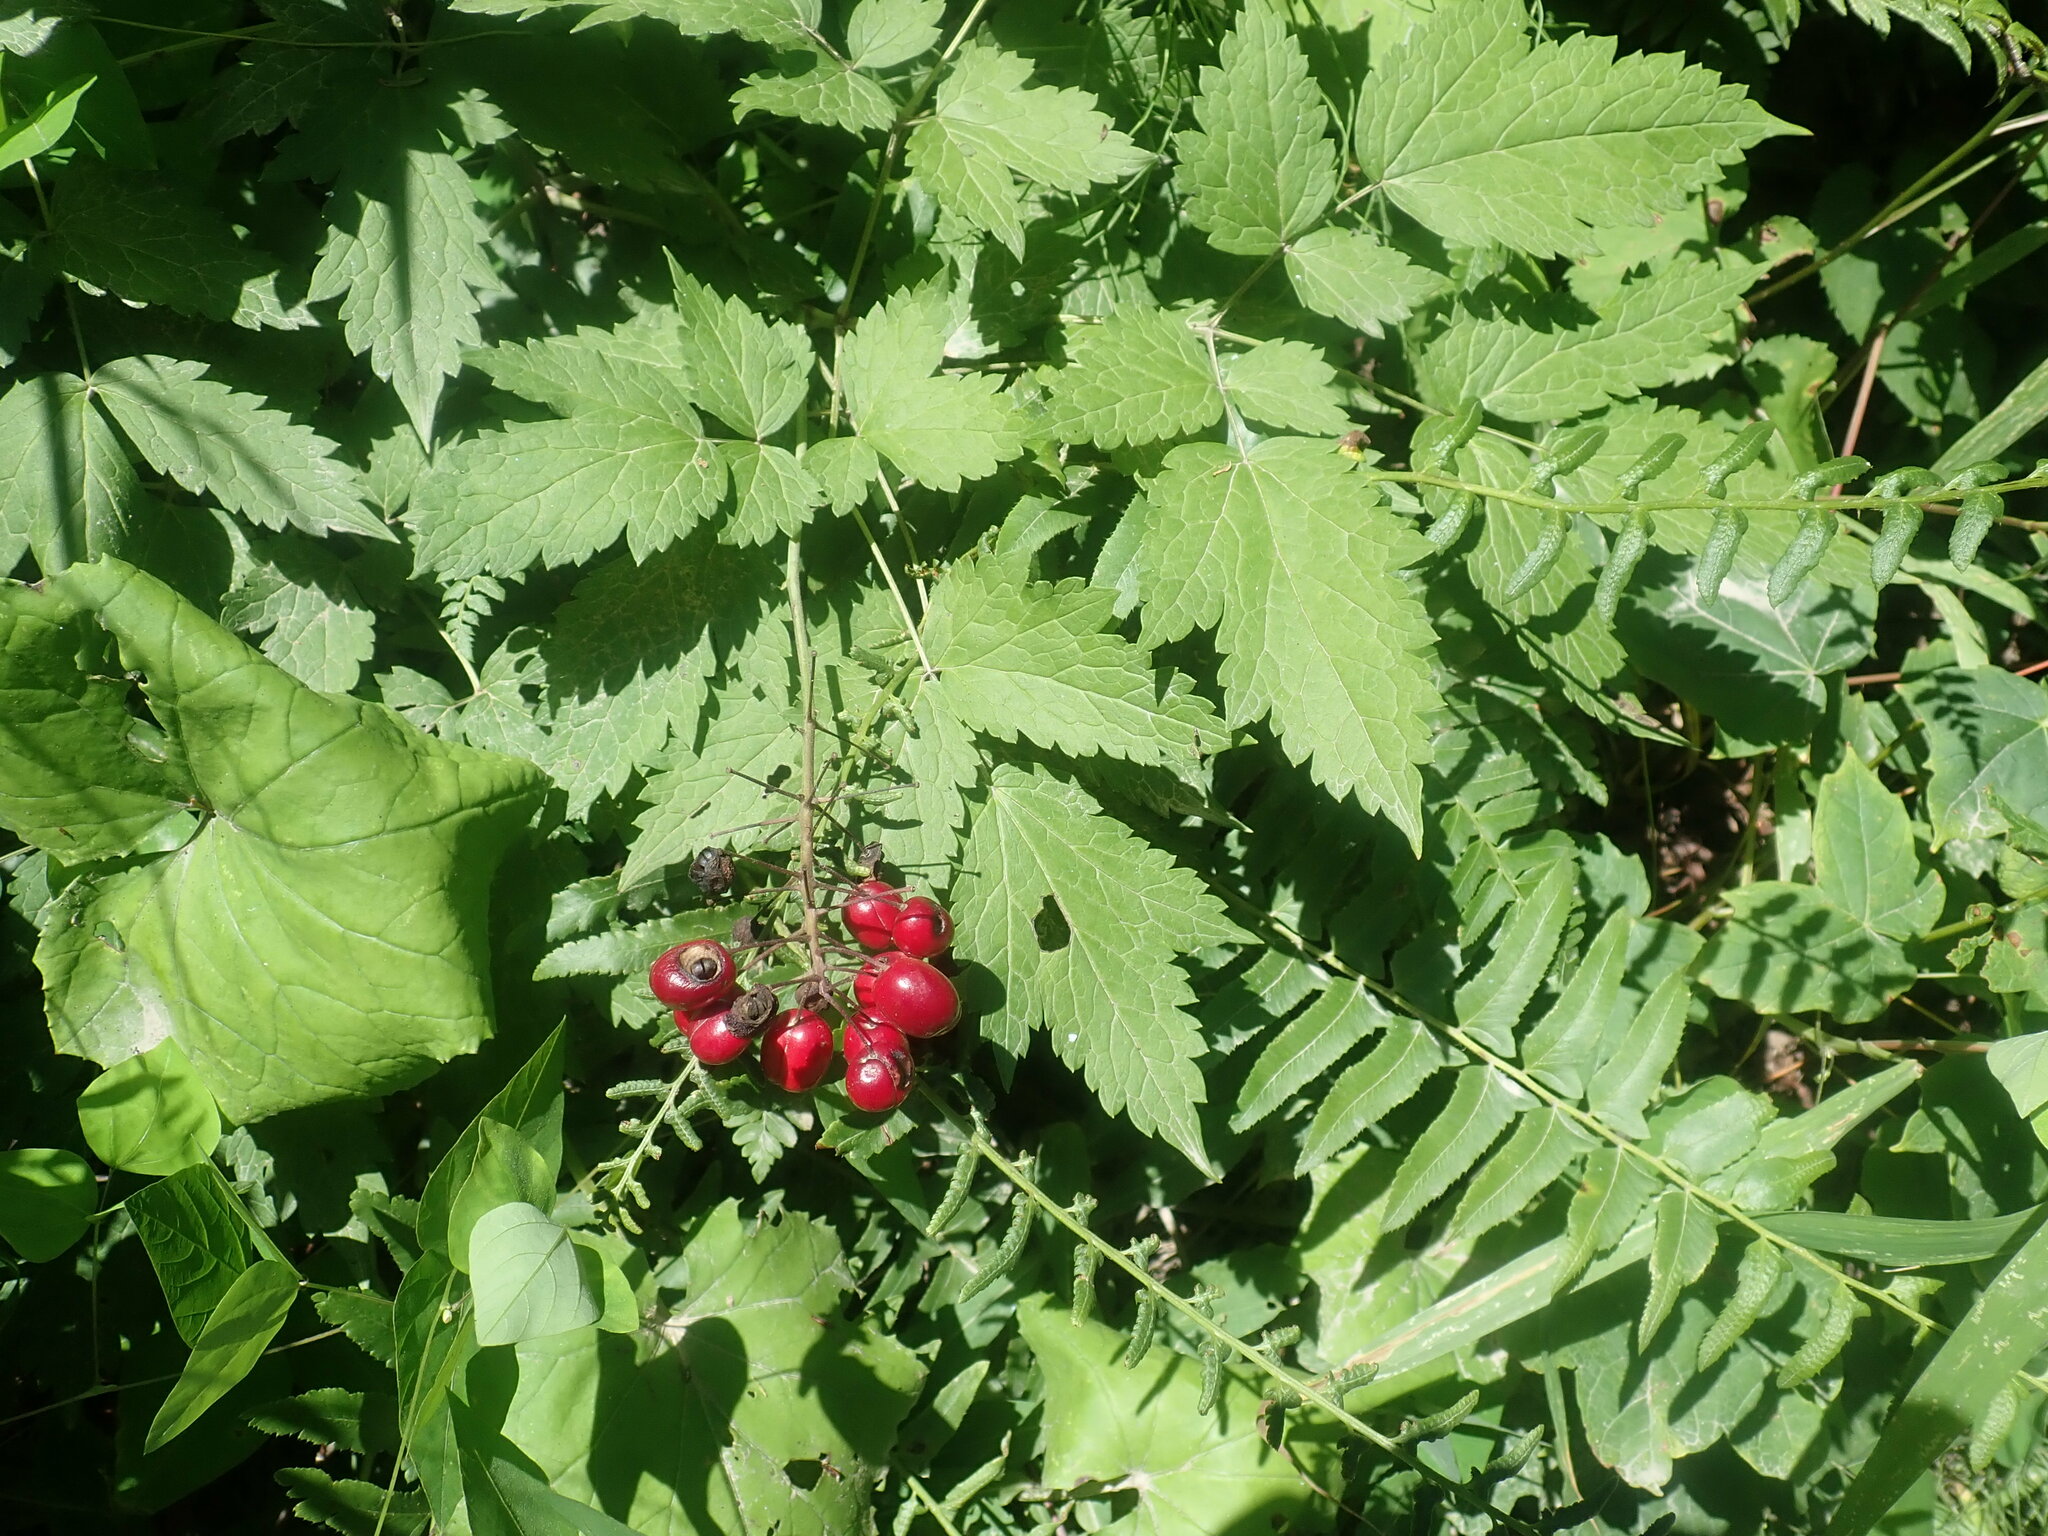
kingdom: Plantae
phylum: Tracheophyta
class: Magnoliopsida
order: Ranunculales
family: Ranunculaceae
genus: Actaea
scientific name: Actaea rubra
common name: Red baneberry
